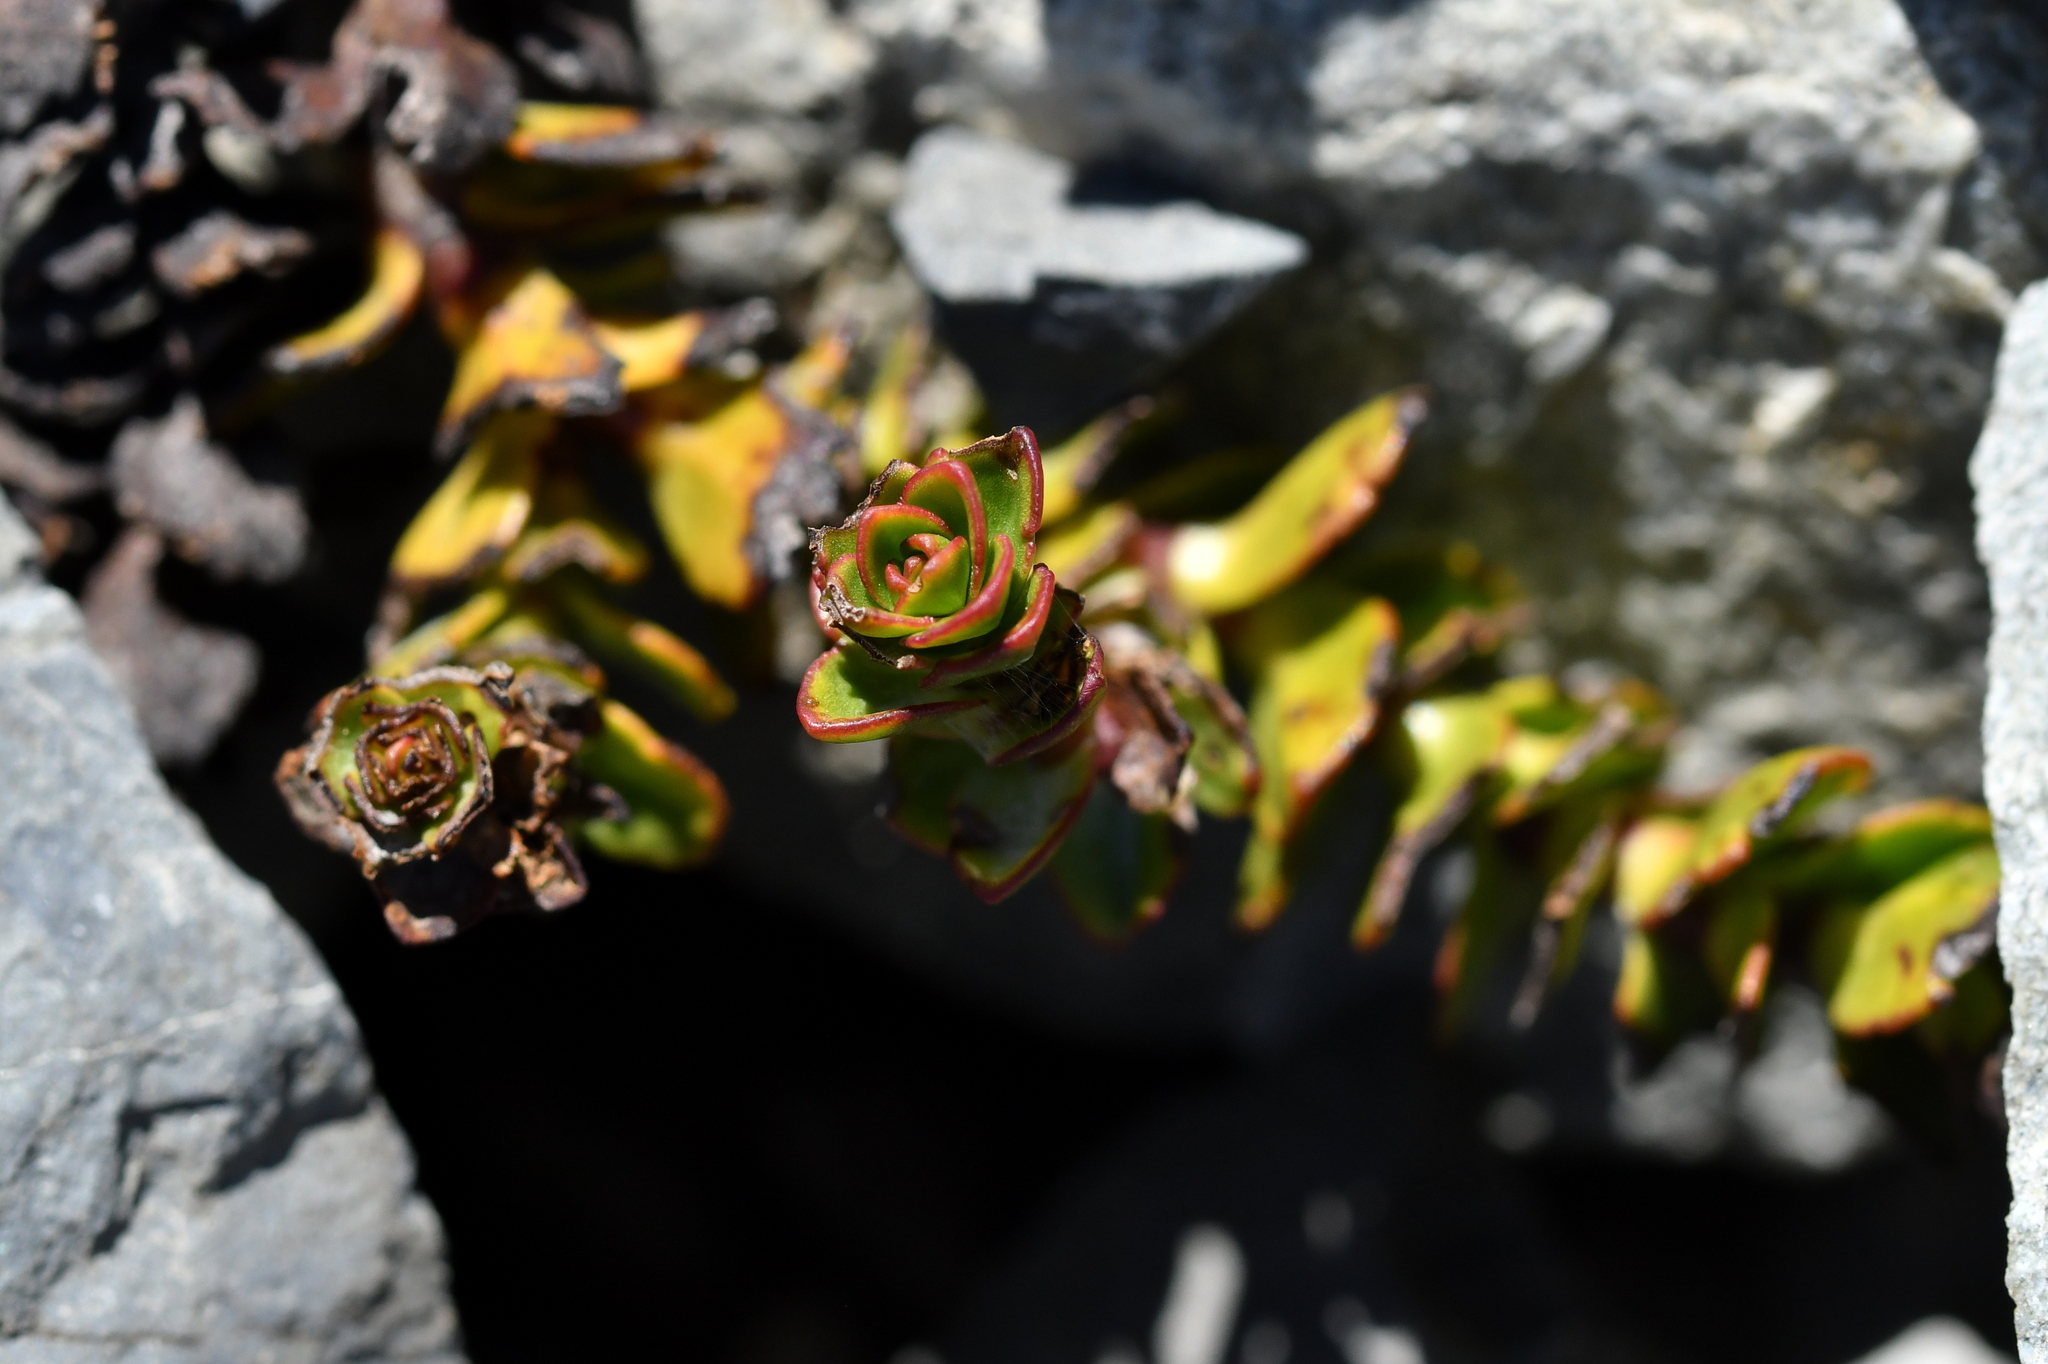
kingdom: Plantae
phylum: Tracheophyta
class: Magnoliopsida
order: Lamiales
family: Plantaginaceae
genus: Veronica
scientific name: Veronica haastii
